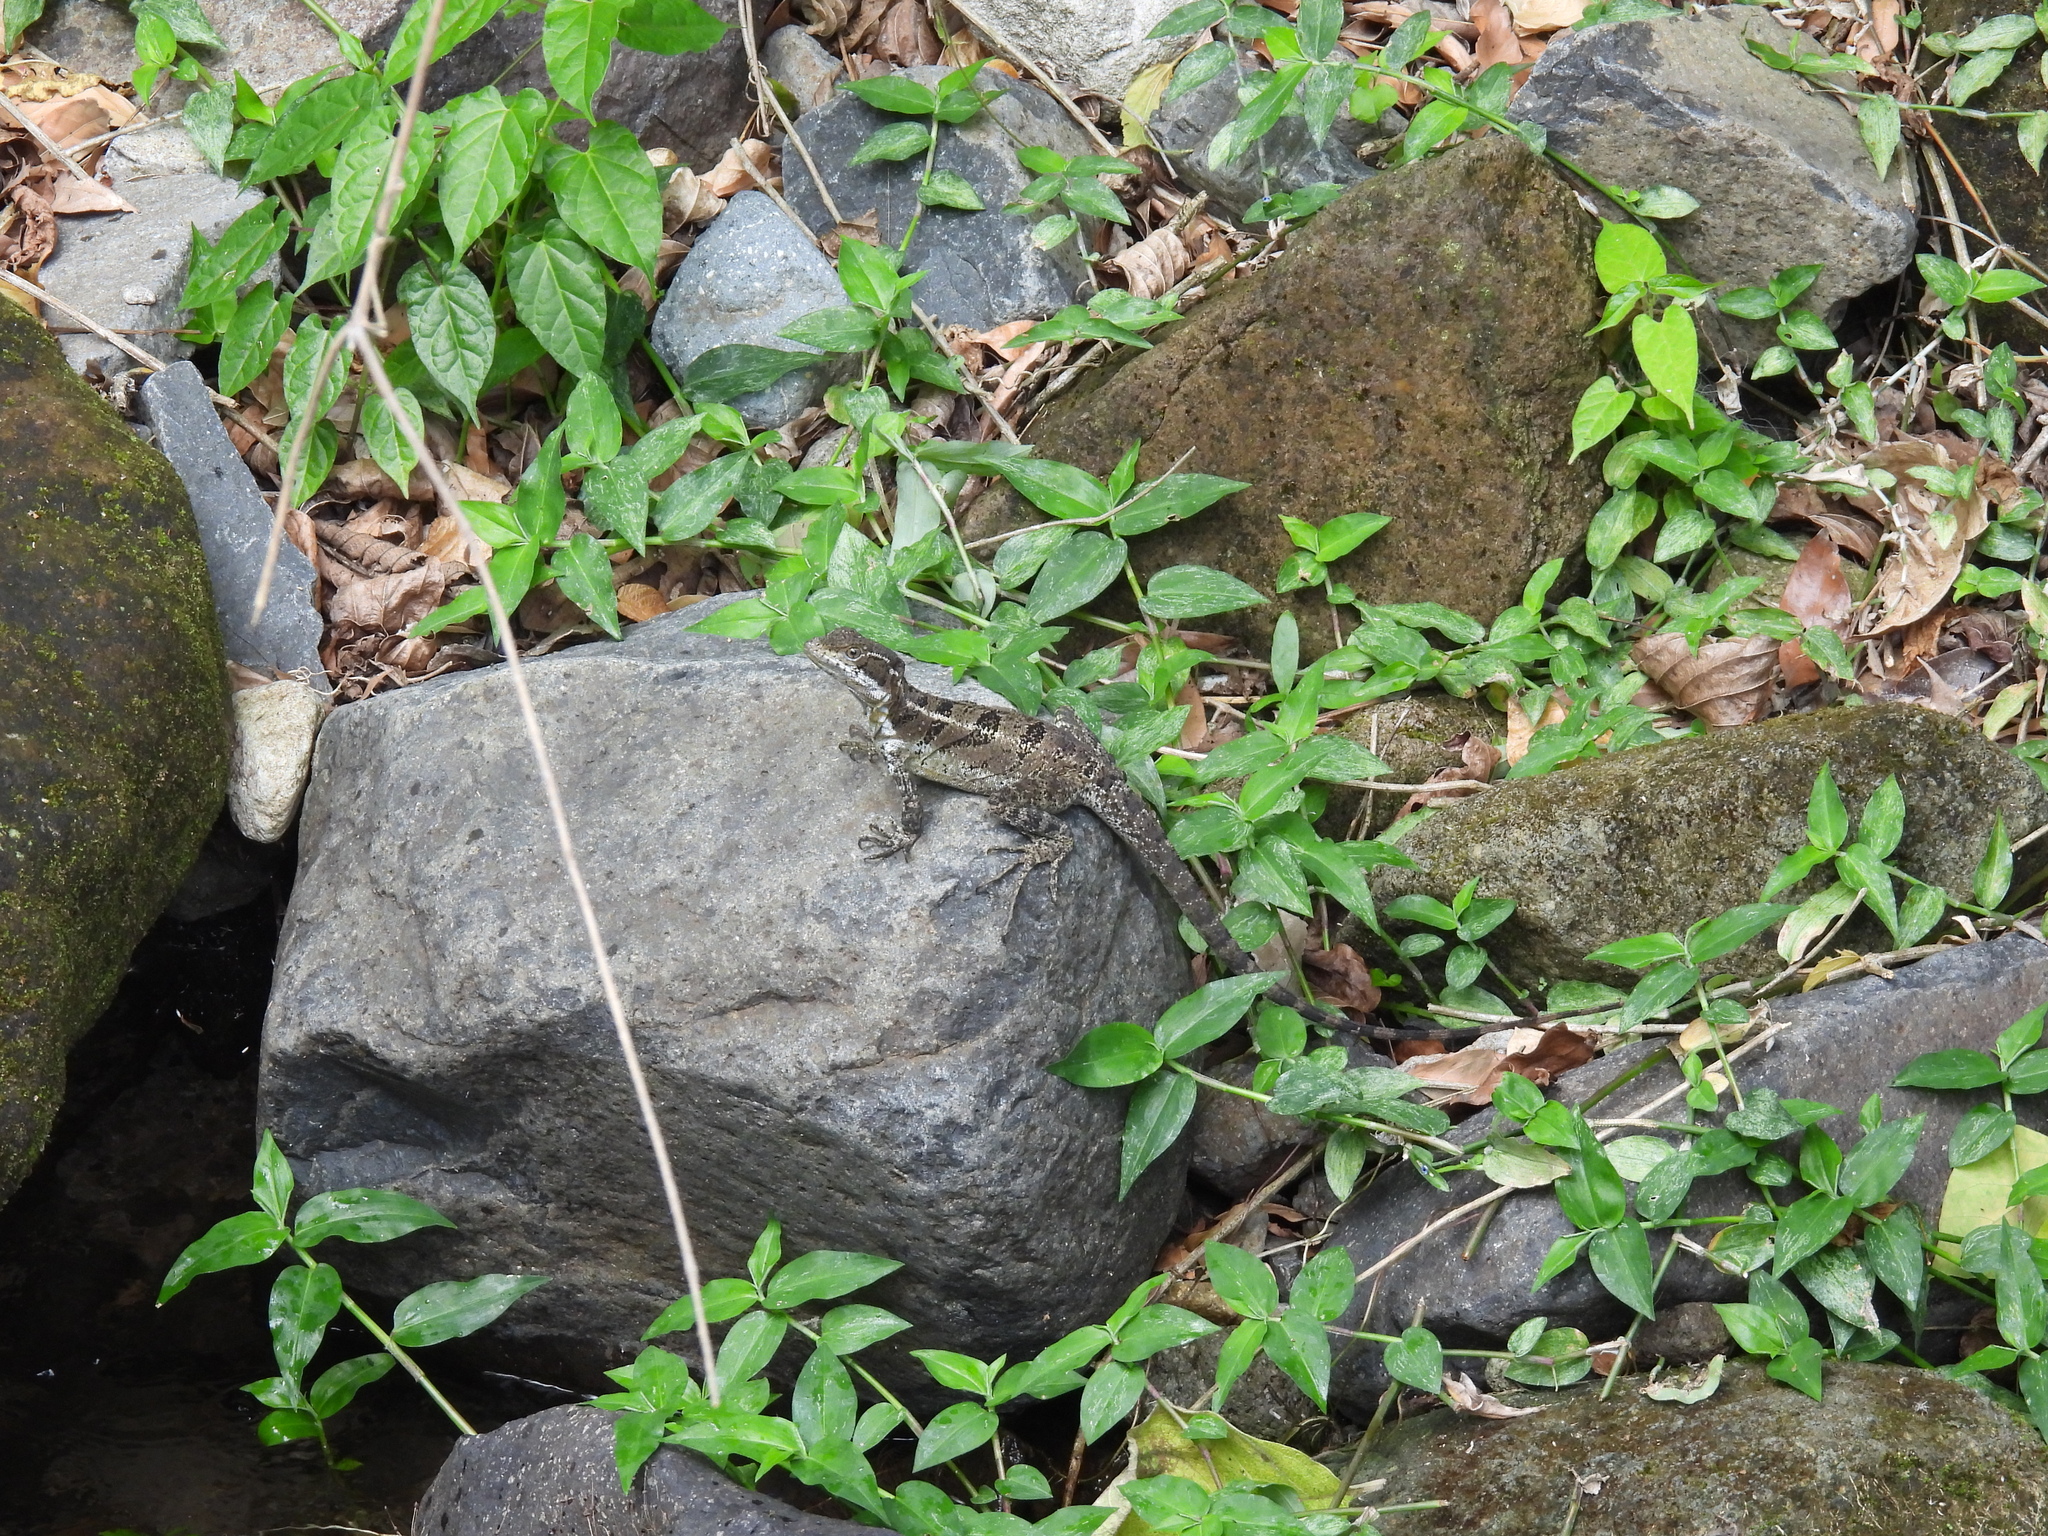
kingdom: Animalia
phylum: Chordata
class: Squamata
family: Corytophanidae
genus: Basiliscus
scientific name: Basiliscus basiliscus
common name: Common basilisk
